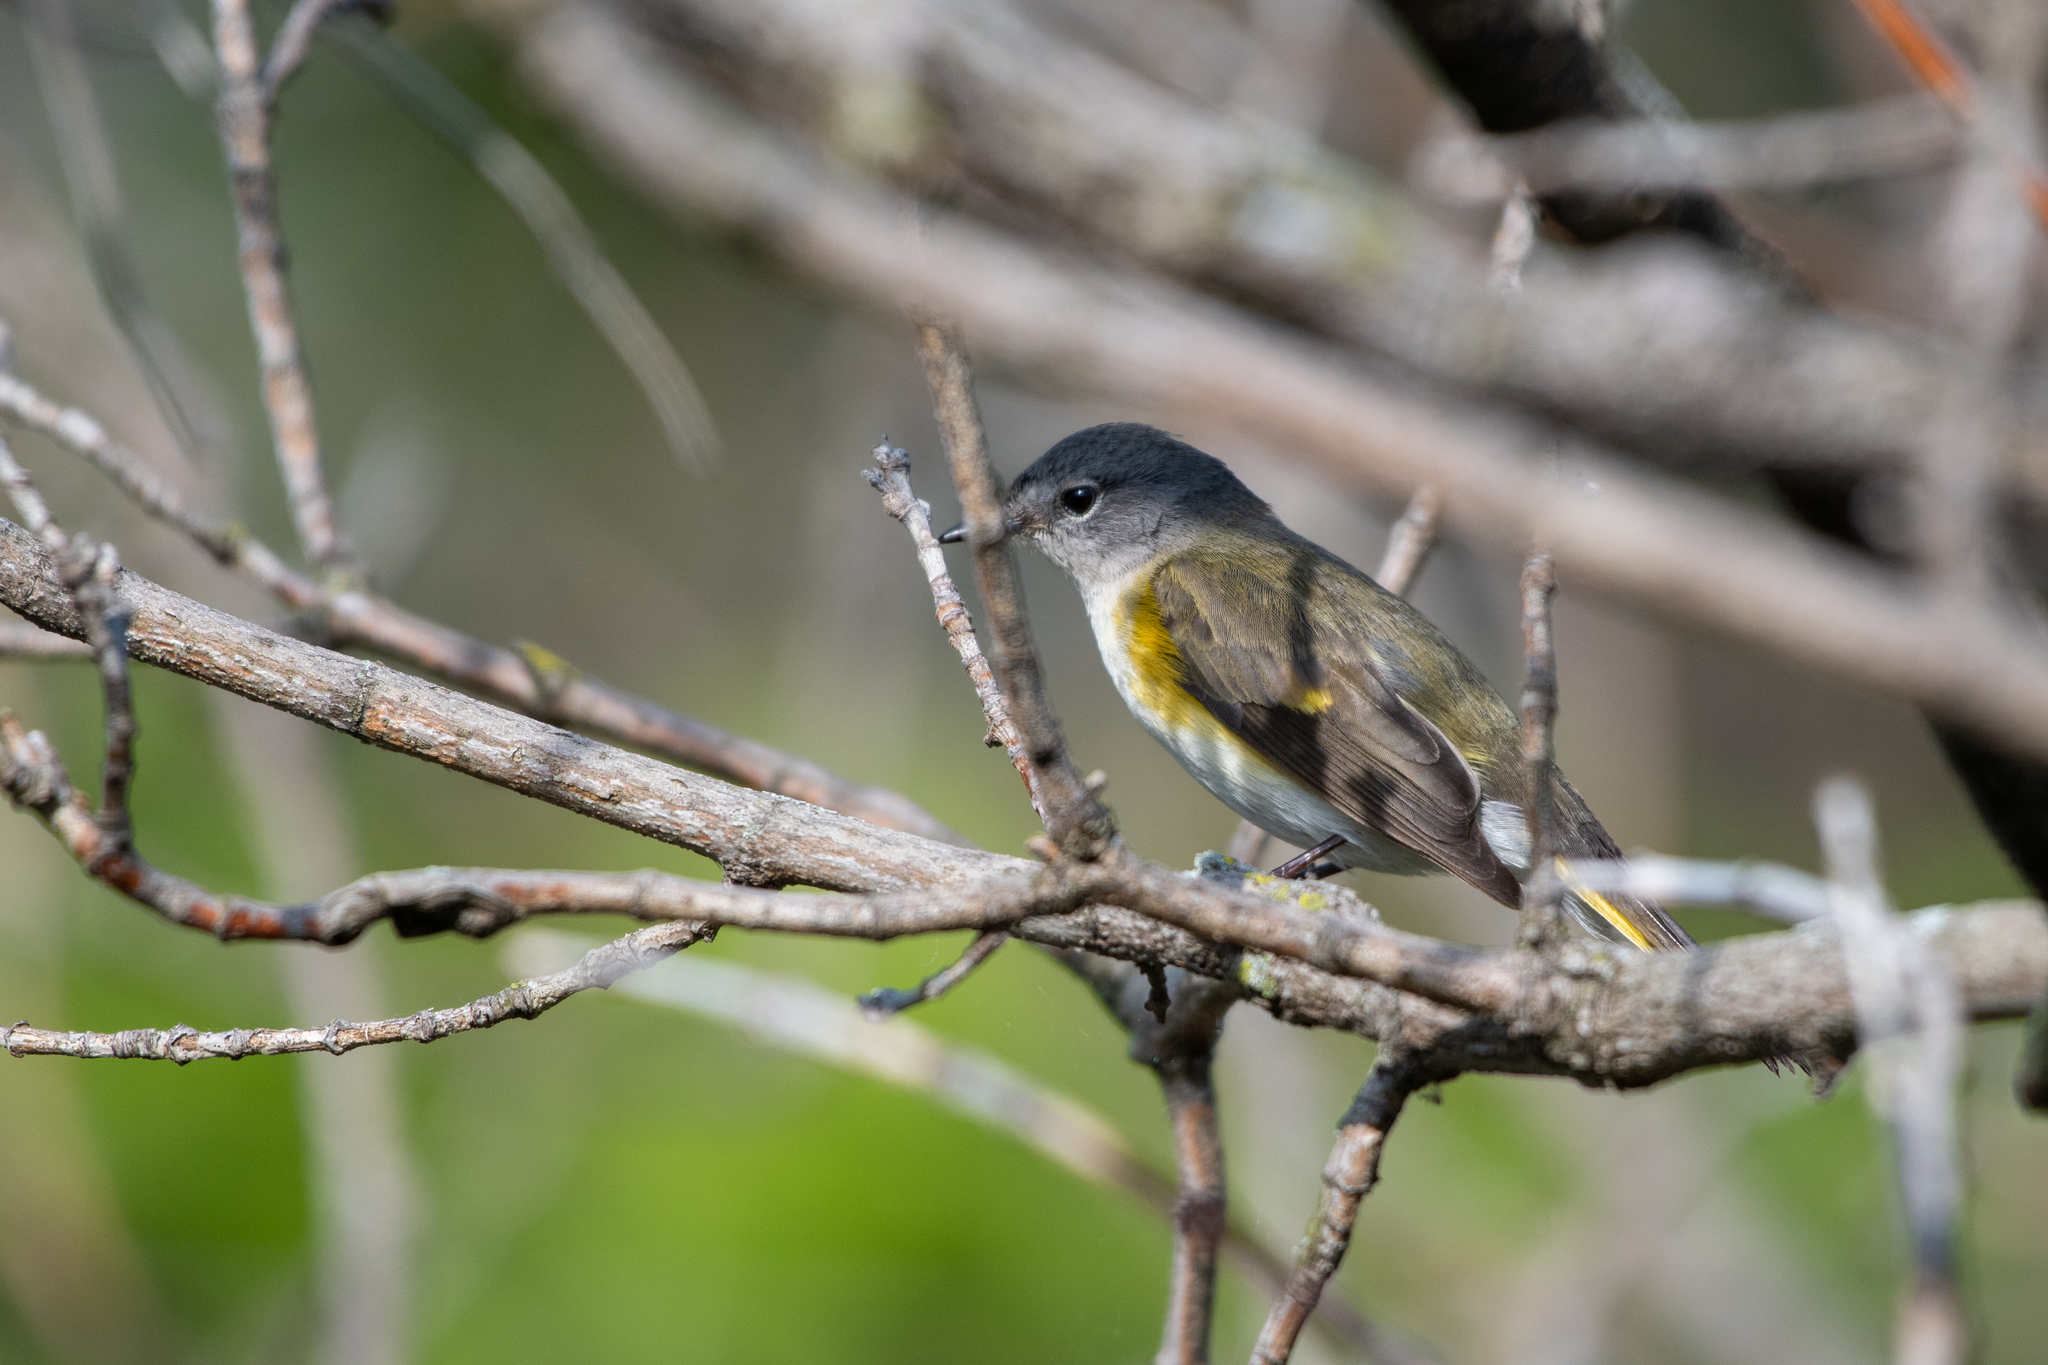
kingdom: Animalia
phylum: Chordata
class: Aves
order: Passeriformes
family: Parulidae
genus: Setophaga
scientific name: Setophaga ruticilla
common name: American redstart
